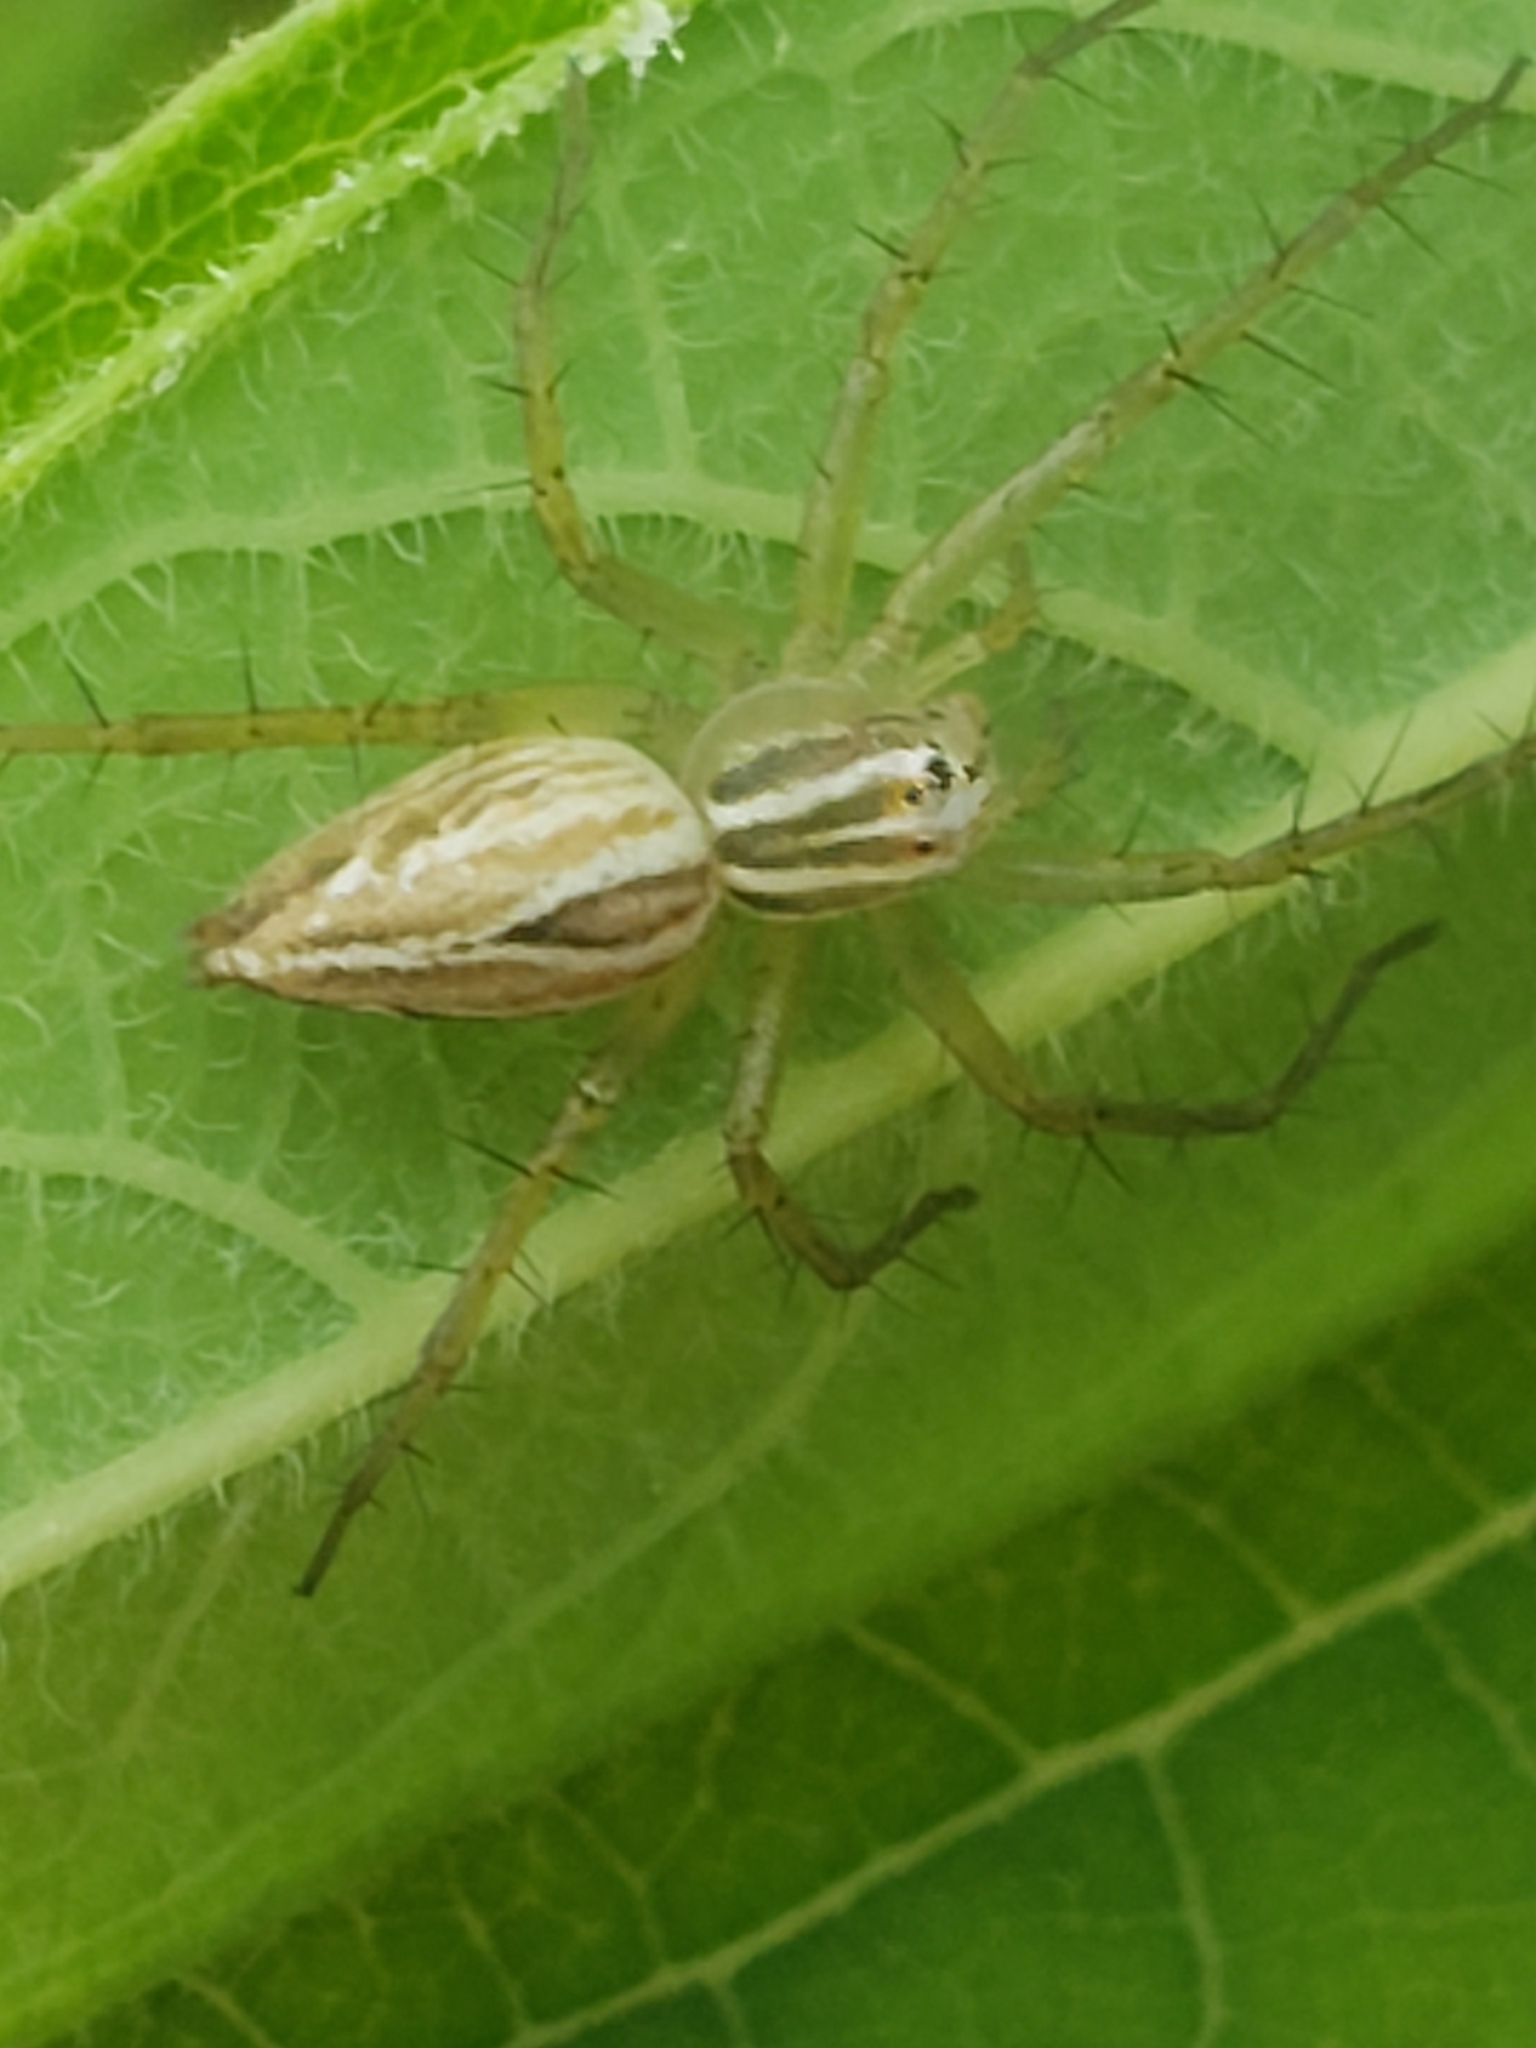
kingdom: Animalia
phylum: Arthropoda
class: Arachnida
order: Araneae
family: Oxyopidae
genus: Oxyopes
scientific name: Oxyopes salticus
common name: Lynx spiders
